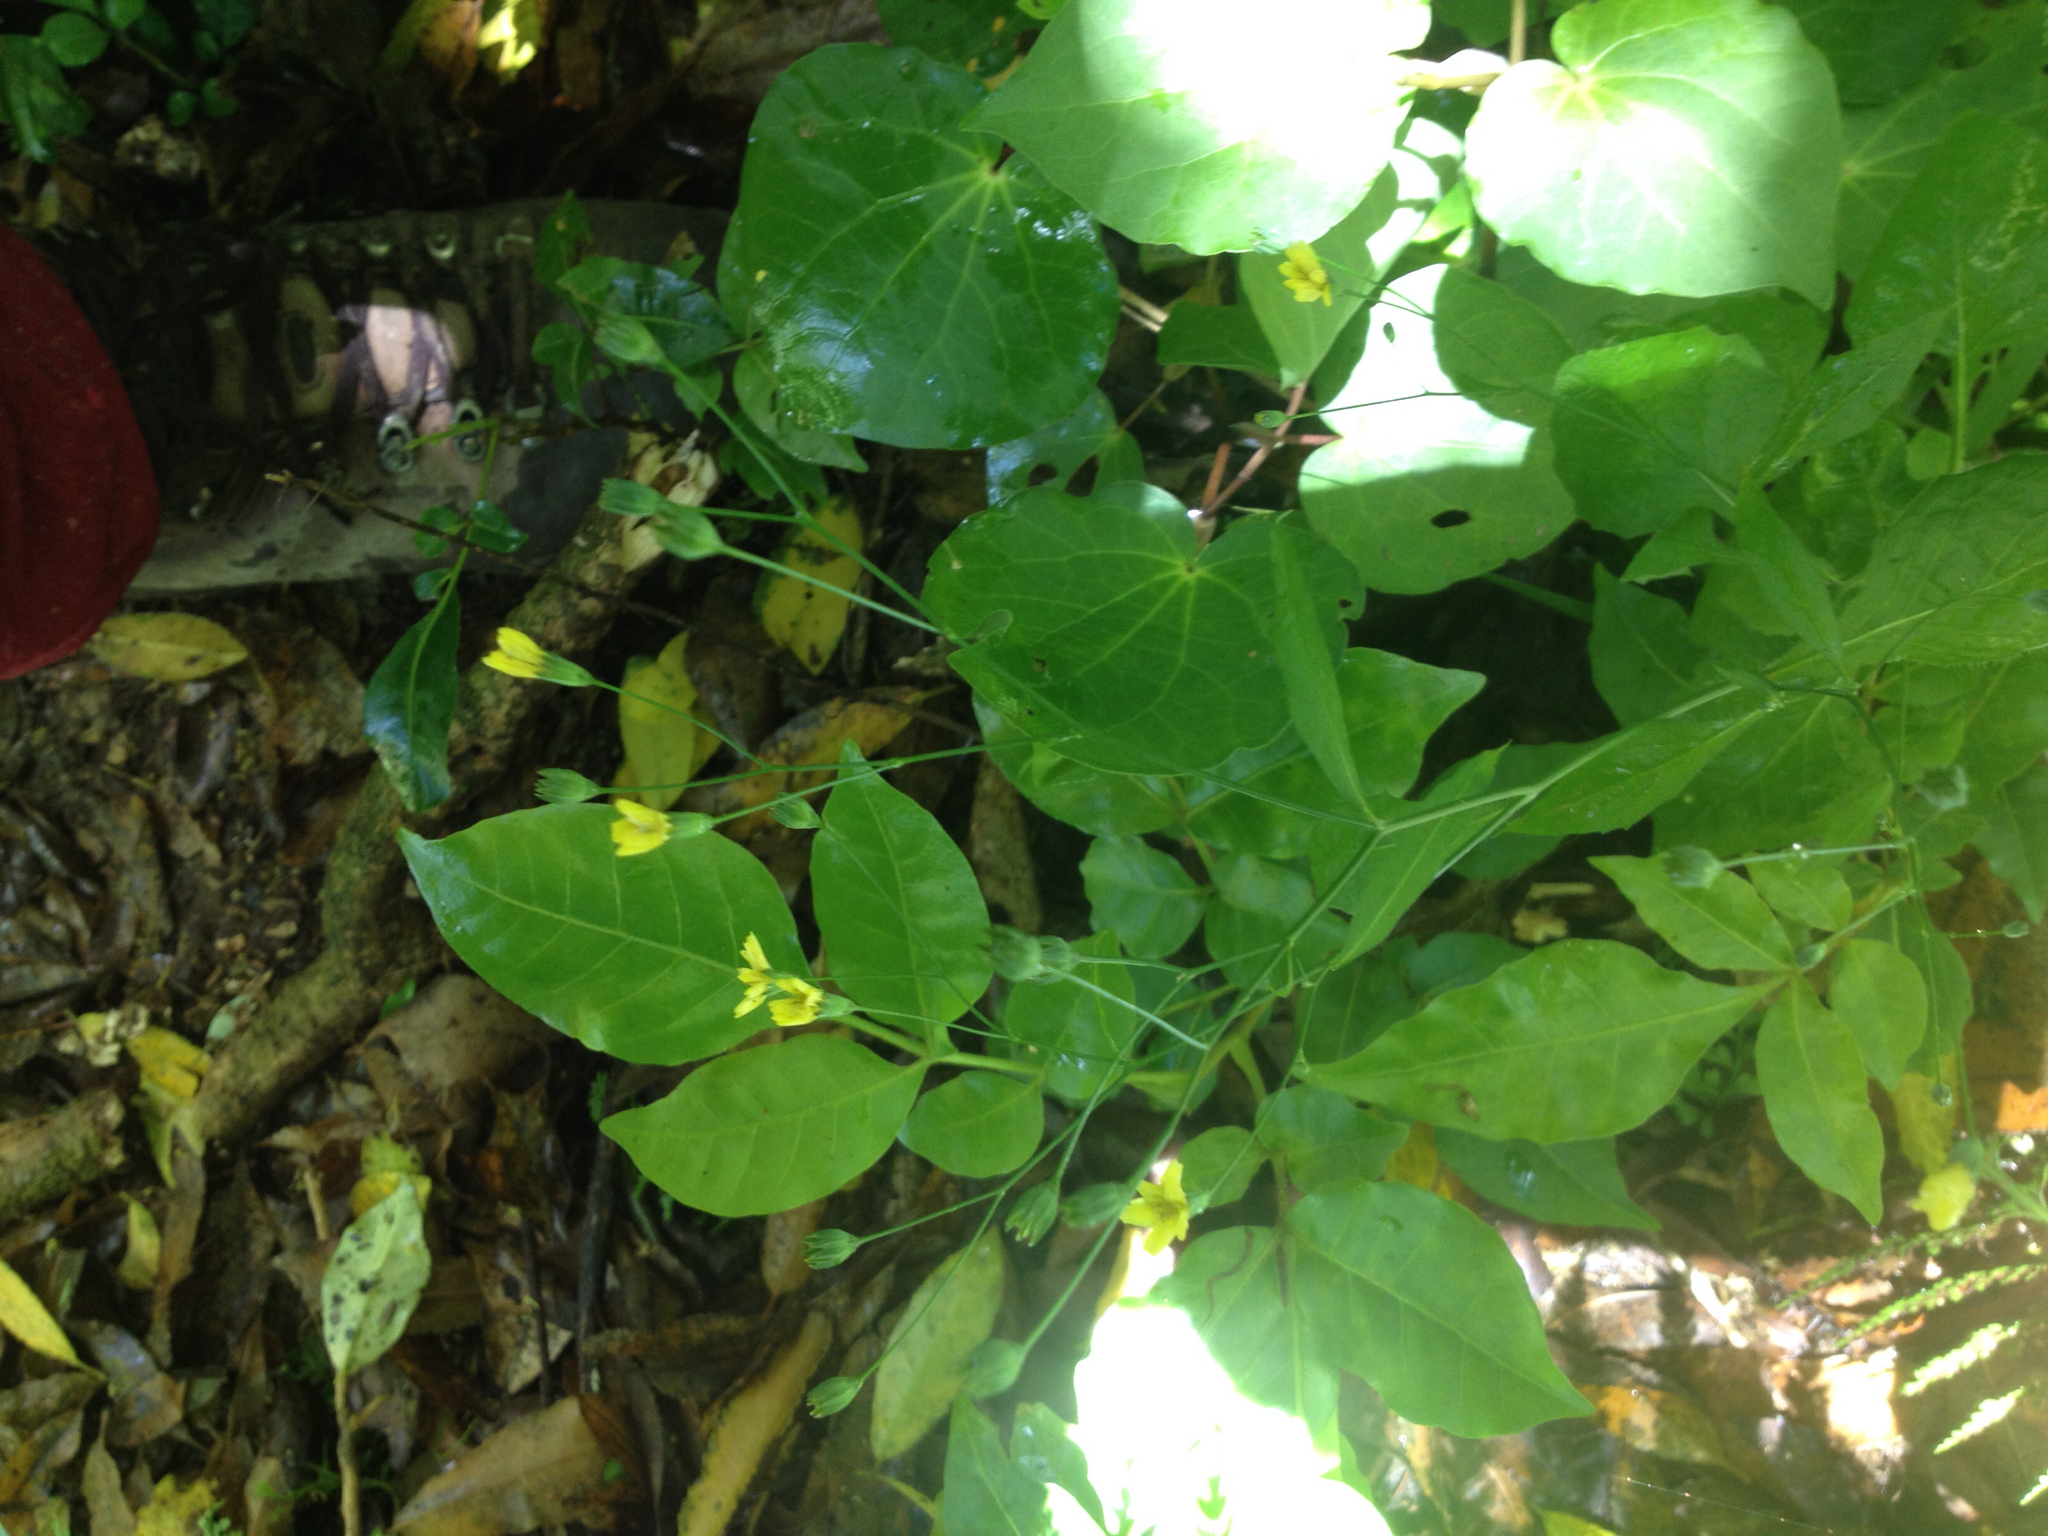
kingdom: Plantae
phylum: Tracheophyta
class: Magnoliopsida
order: Asterales
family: Asteraceae
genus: Lapsana
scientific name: Lapsana communis
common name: Nipplewort
